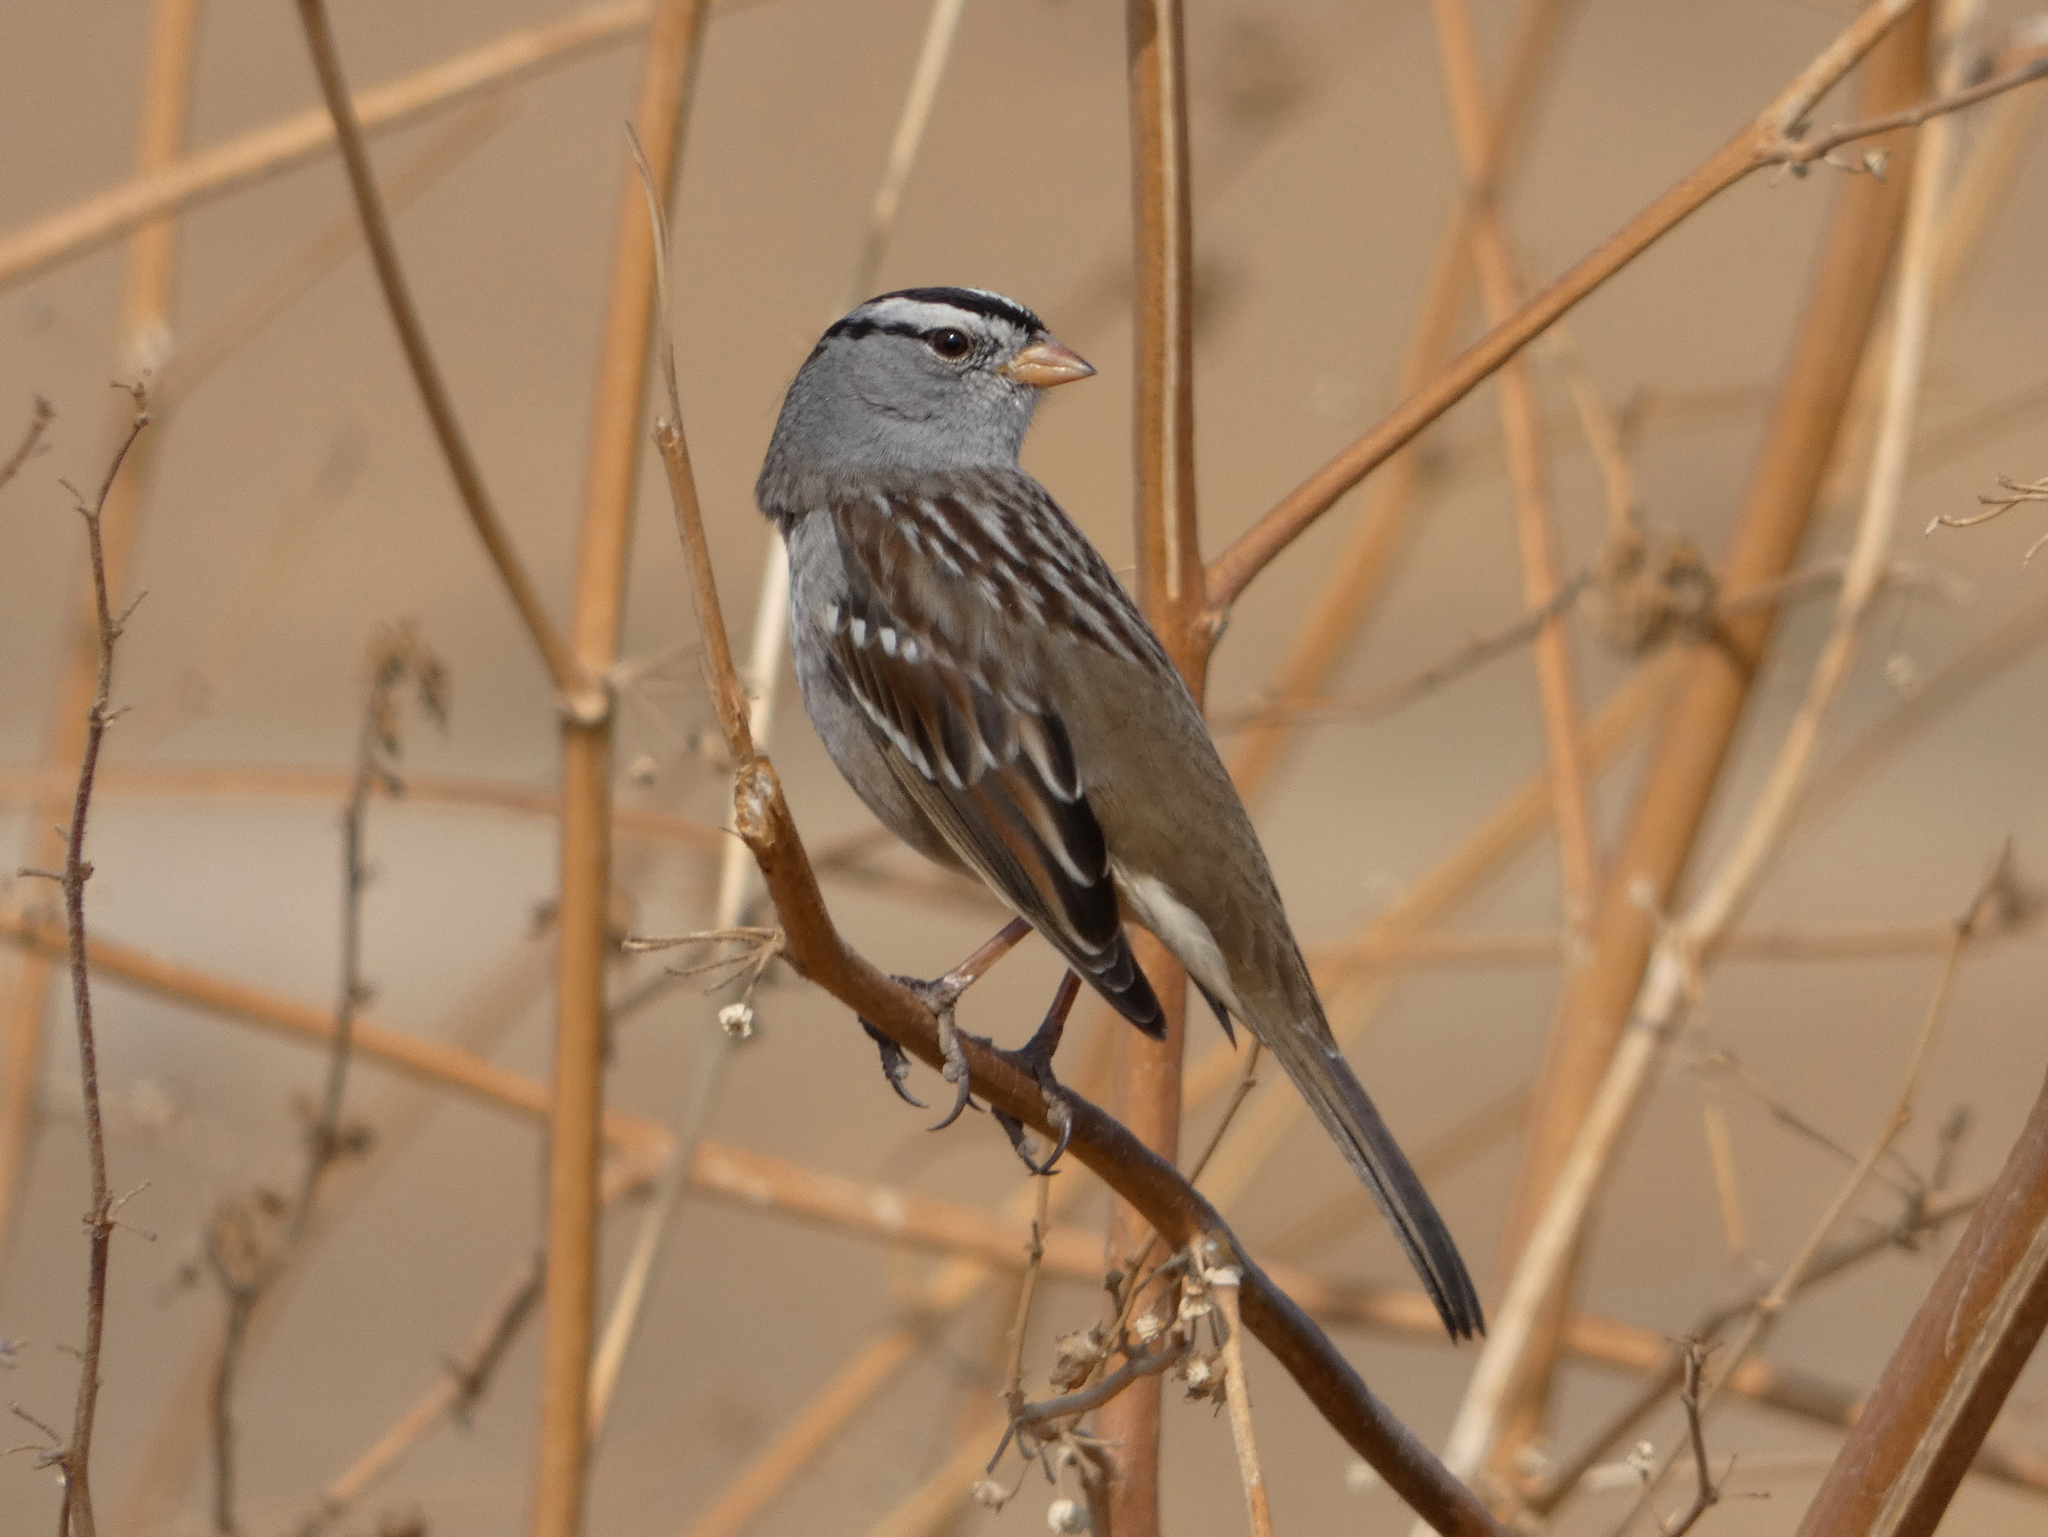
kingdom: Animalia
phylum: Chordata
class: Aves
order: Passeriformes
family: Passerellidae
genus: Zonotrichia
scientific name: Zonotrichia leucophrys
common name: White-crowned sparrow
